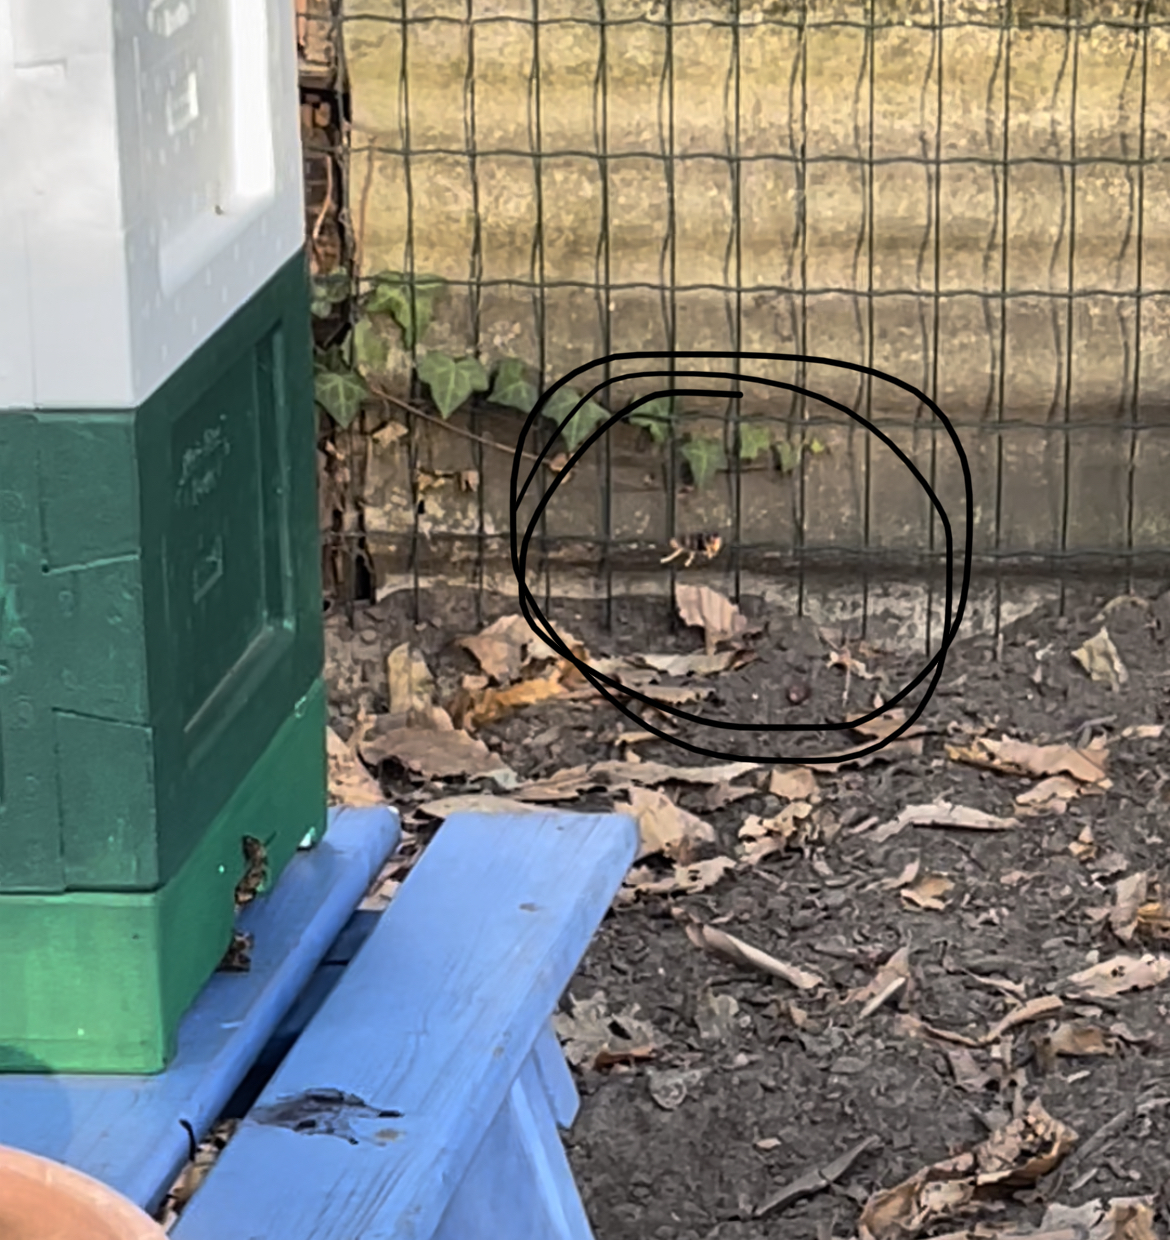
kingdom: Animalia
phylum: Arthropoda
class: Insecta
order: Hymenoptera
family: Vespidae
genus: Vespa
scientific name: Vespa velutina
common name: Asian hornet
